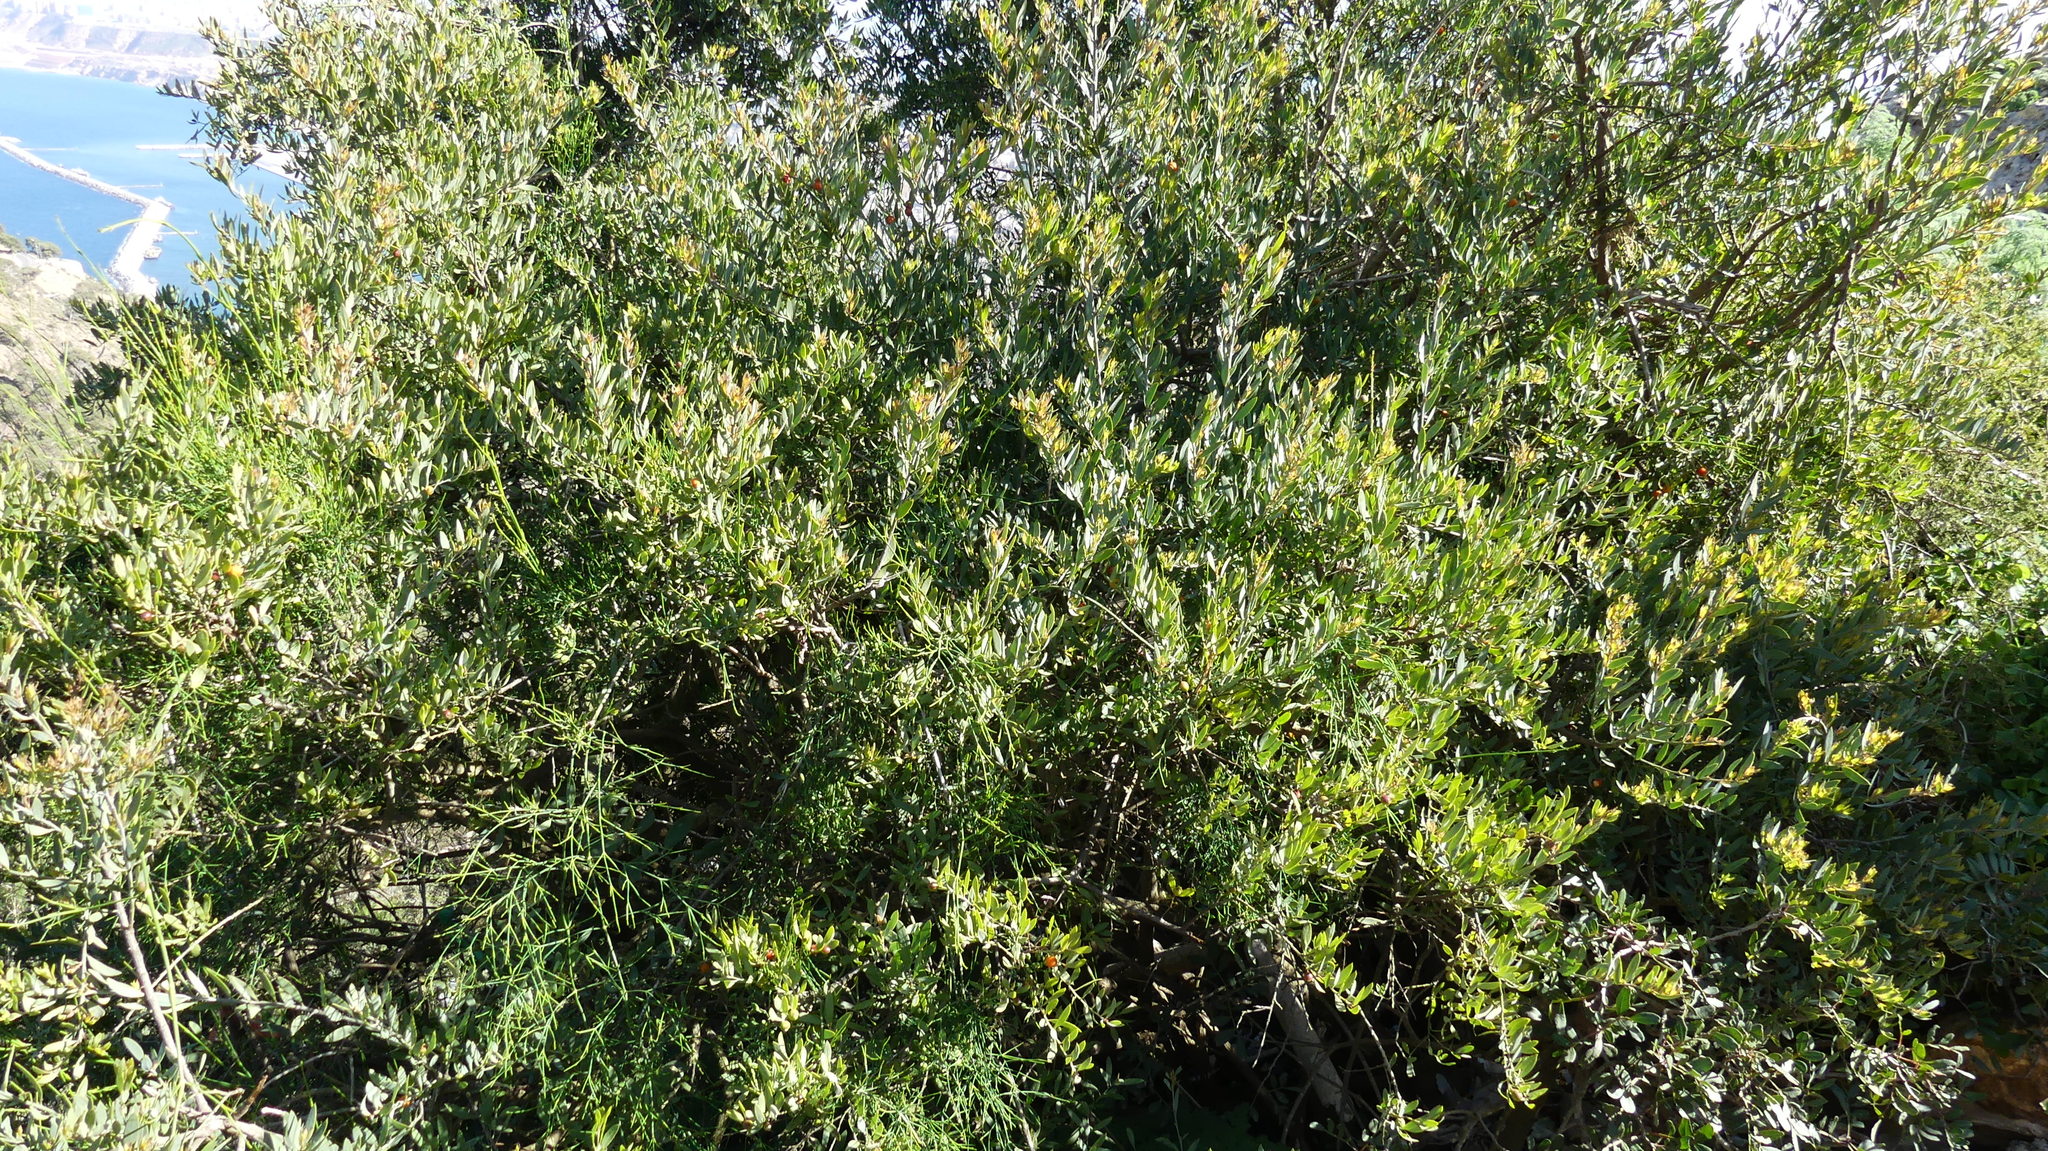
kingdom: Plantae
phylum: Tracheophyta
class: Magnoliopsida
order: Santalales
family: Santalaceae
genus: Osyris
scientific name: Osyris lanceolata
